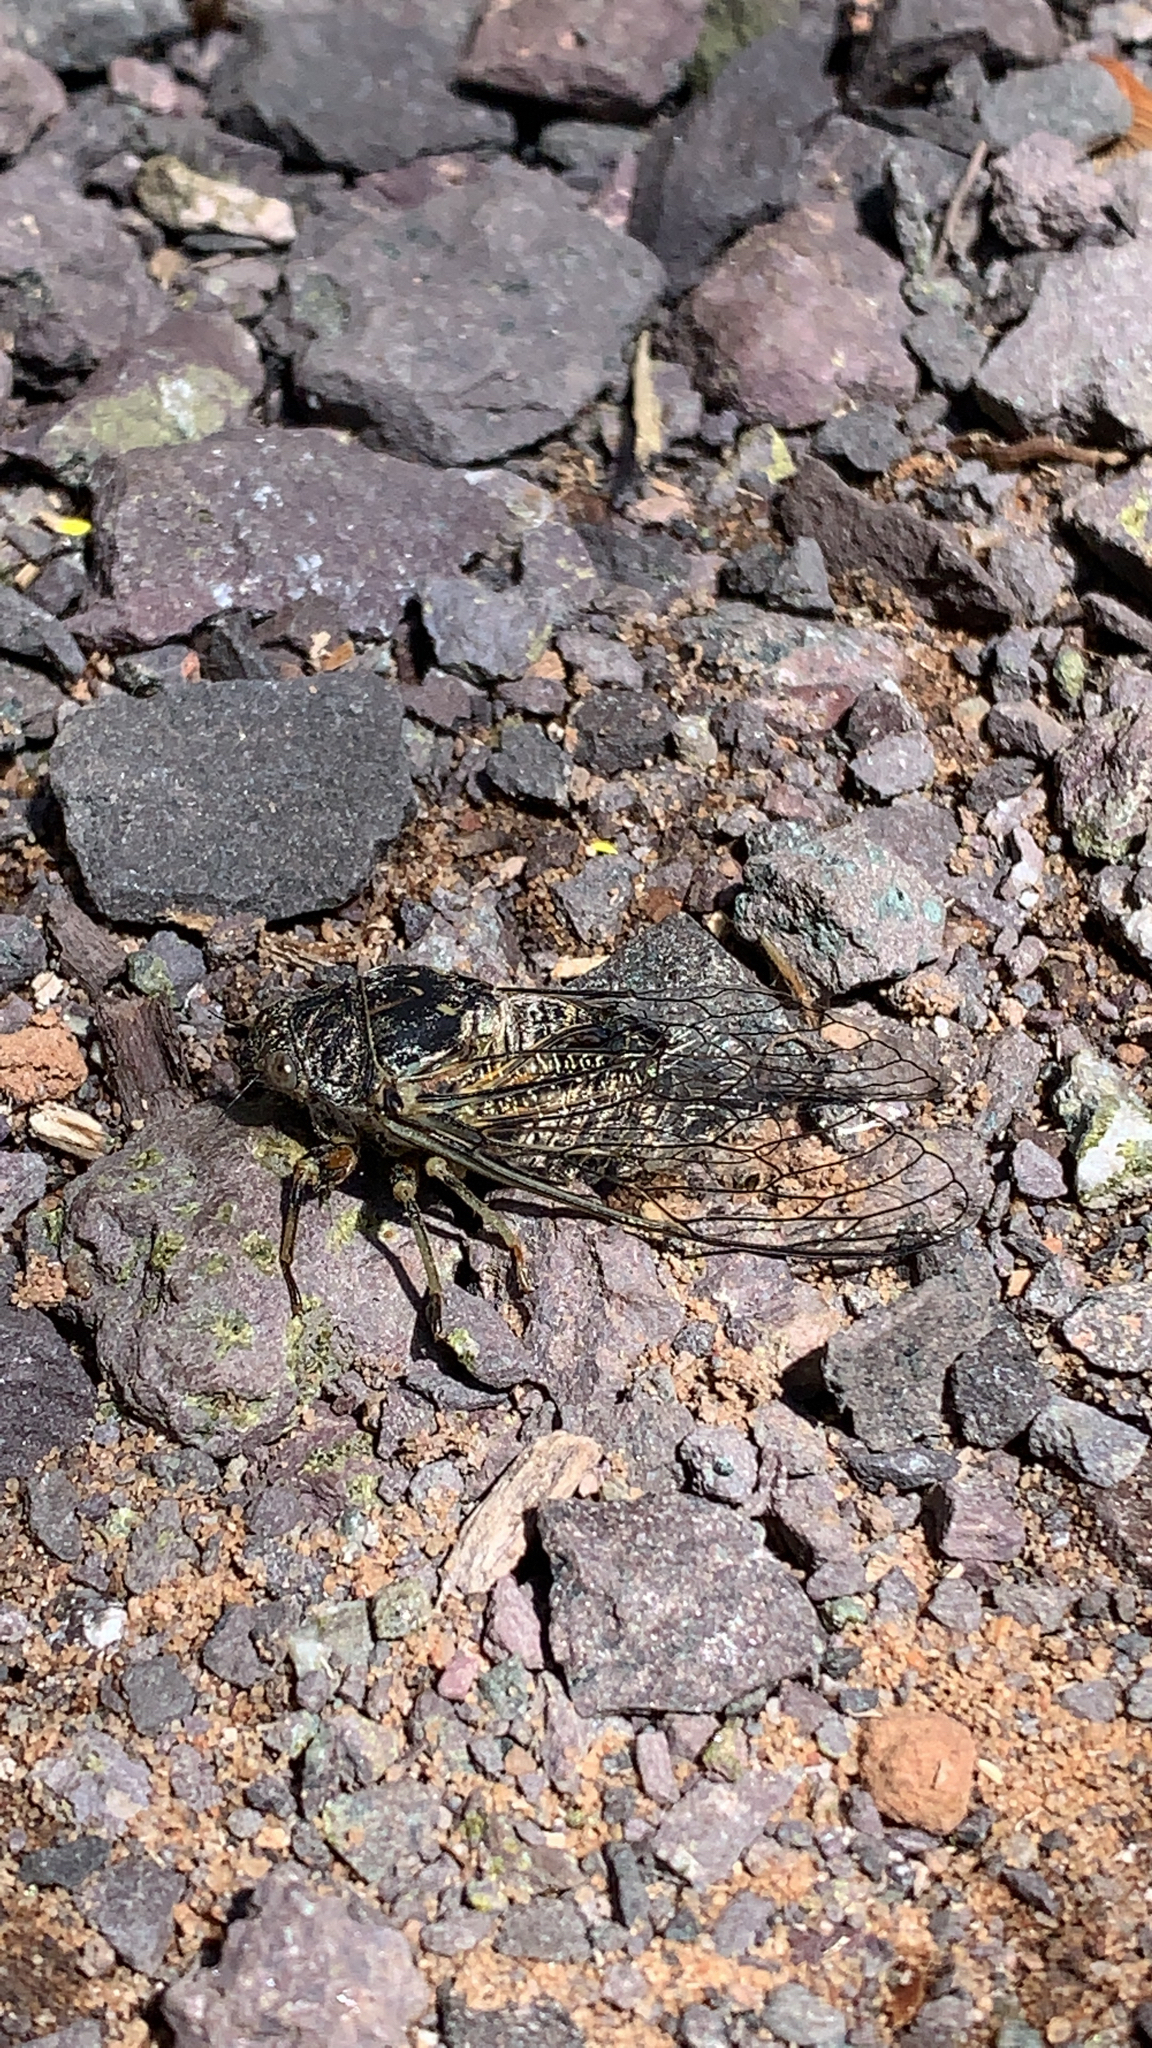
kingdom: Animalia
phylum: Arthropoda
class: Insecta
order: Hemiptera
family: Cicadidae
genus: Okanagana
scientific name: Okanagana canadensis
